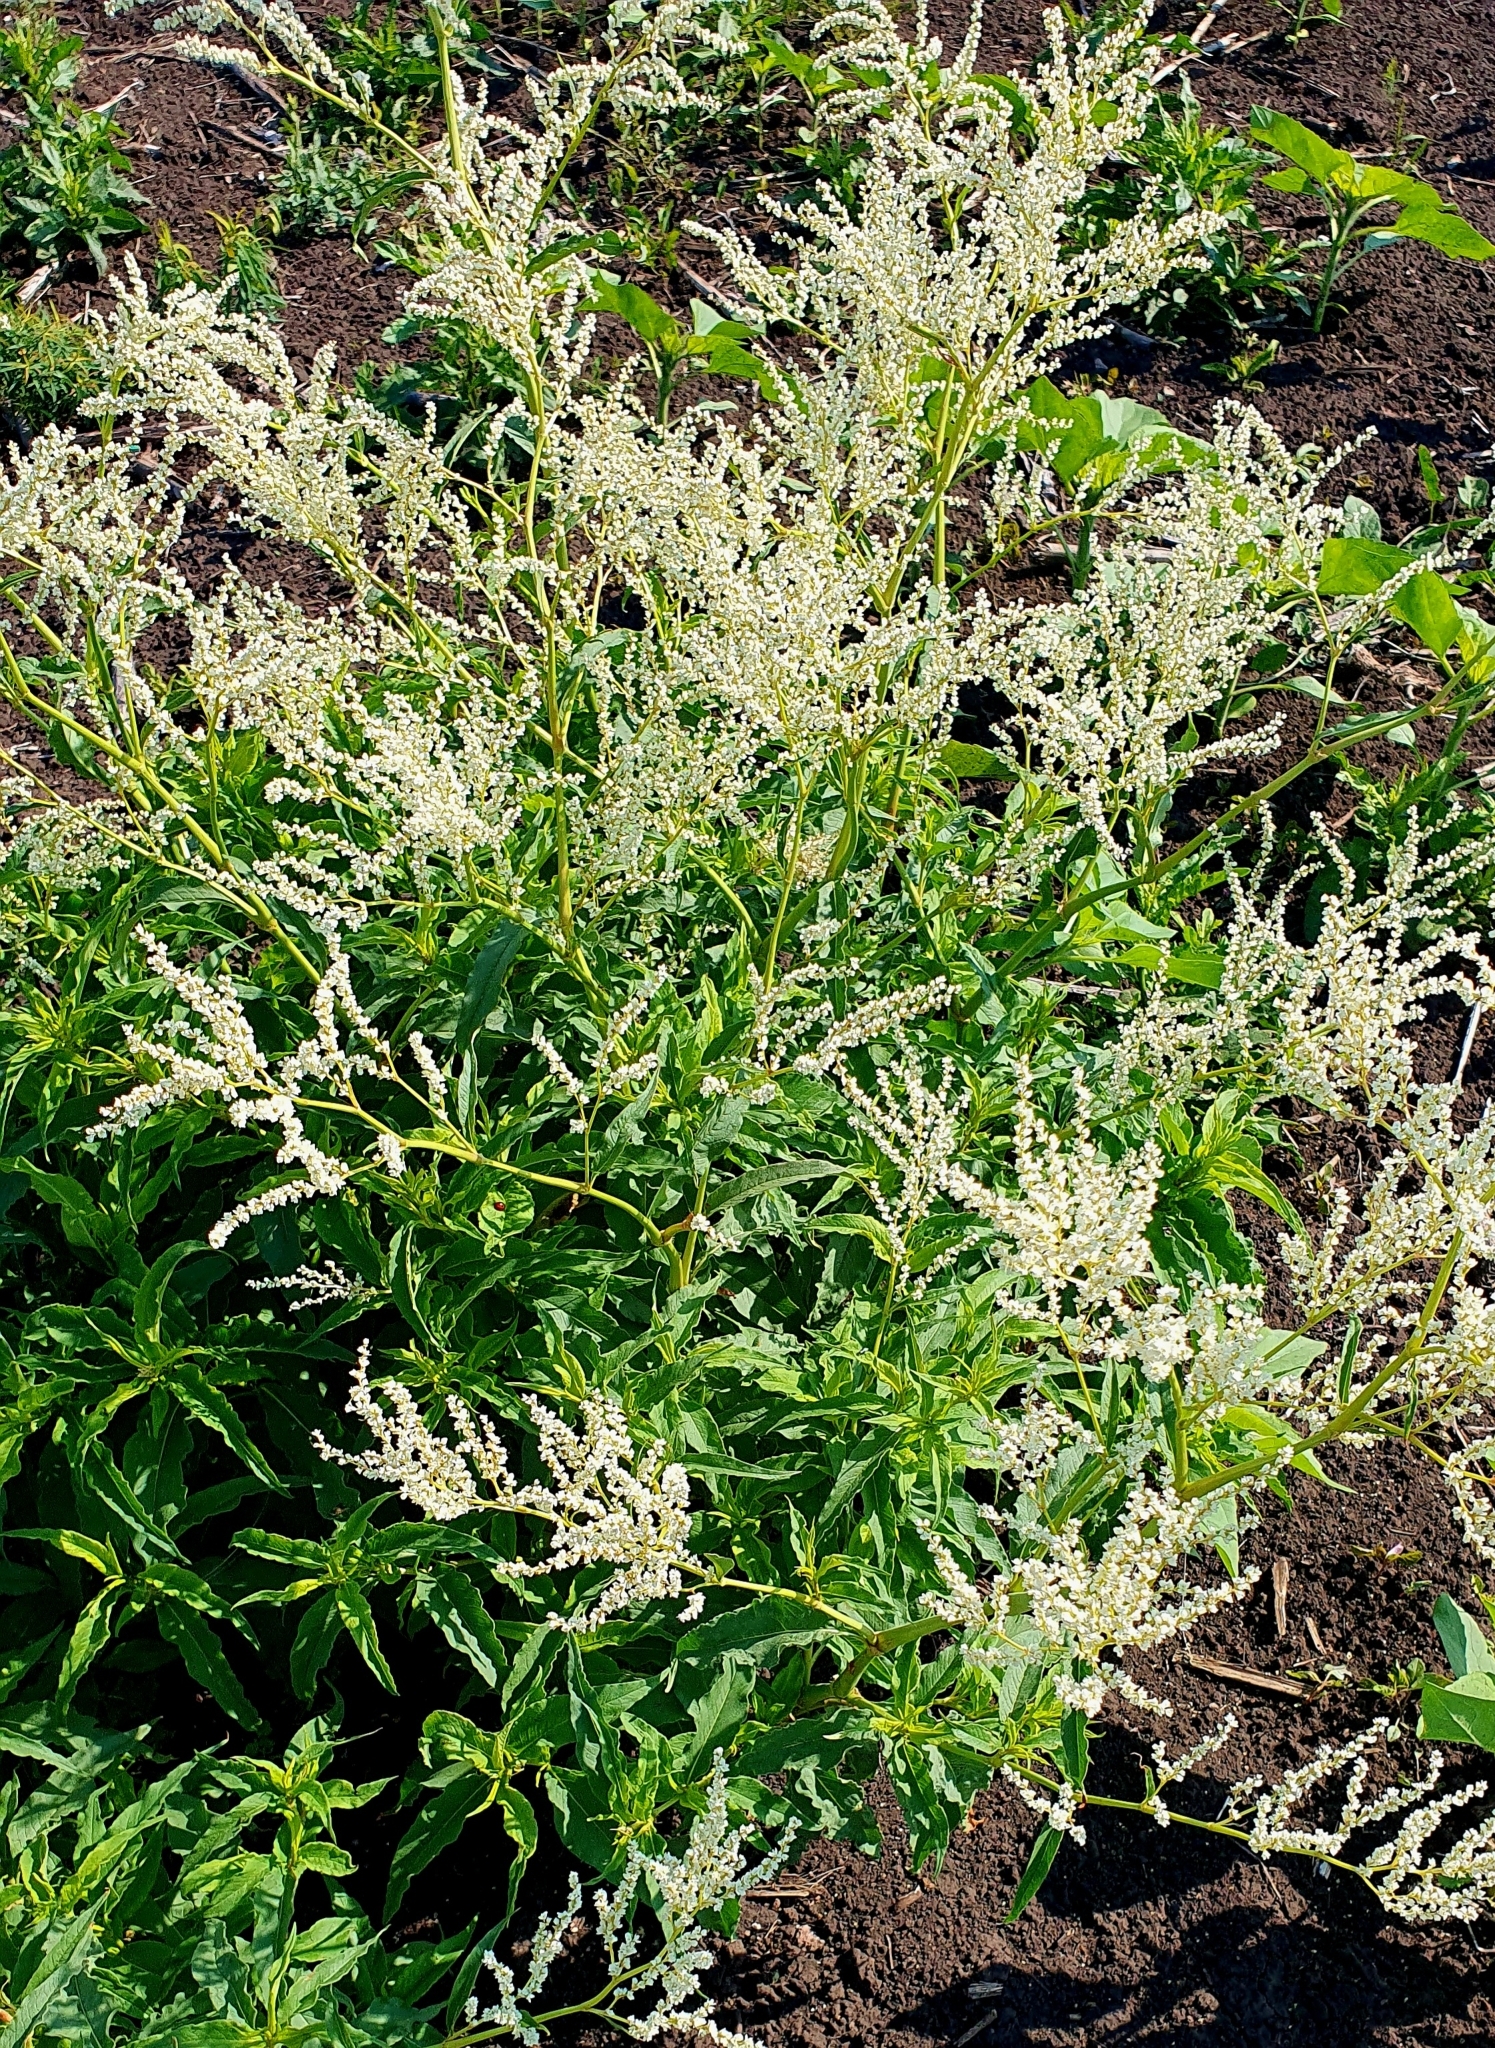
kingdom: Plantae
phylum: Tracheophyta
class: Magnoliopsida
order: Caryophyllales
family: Polygonaceae
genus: Koenigia
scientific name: Koenigia alpina
